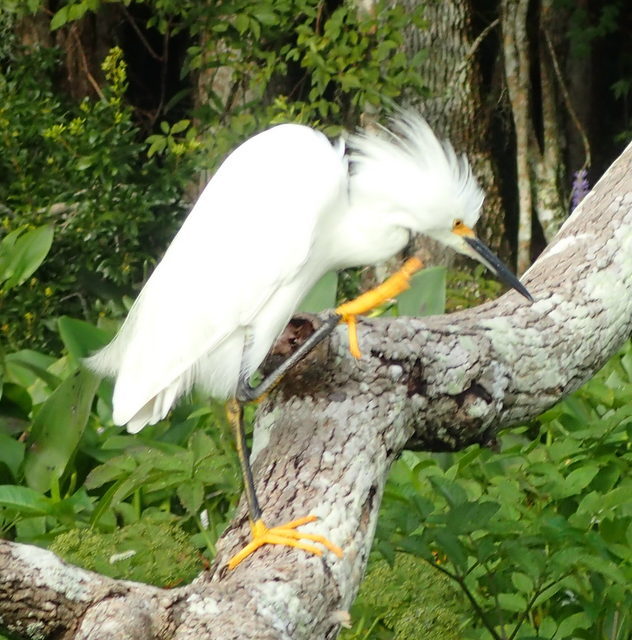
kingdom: Animalia
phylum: Chordata
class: Aves
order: Pelecaniformes
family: Ardeidae
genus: Egretta
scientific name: Egretta thula
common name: Snowy egret
